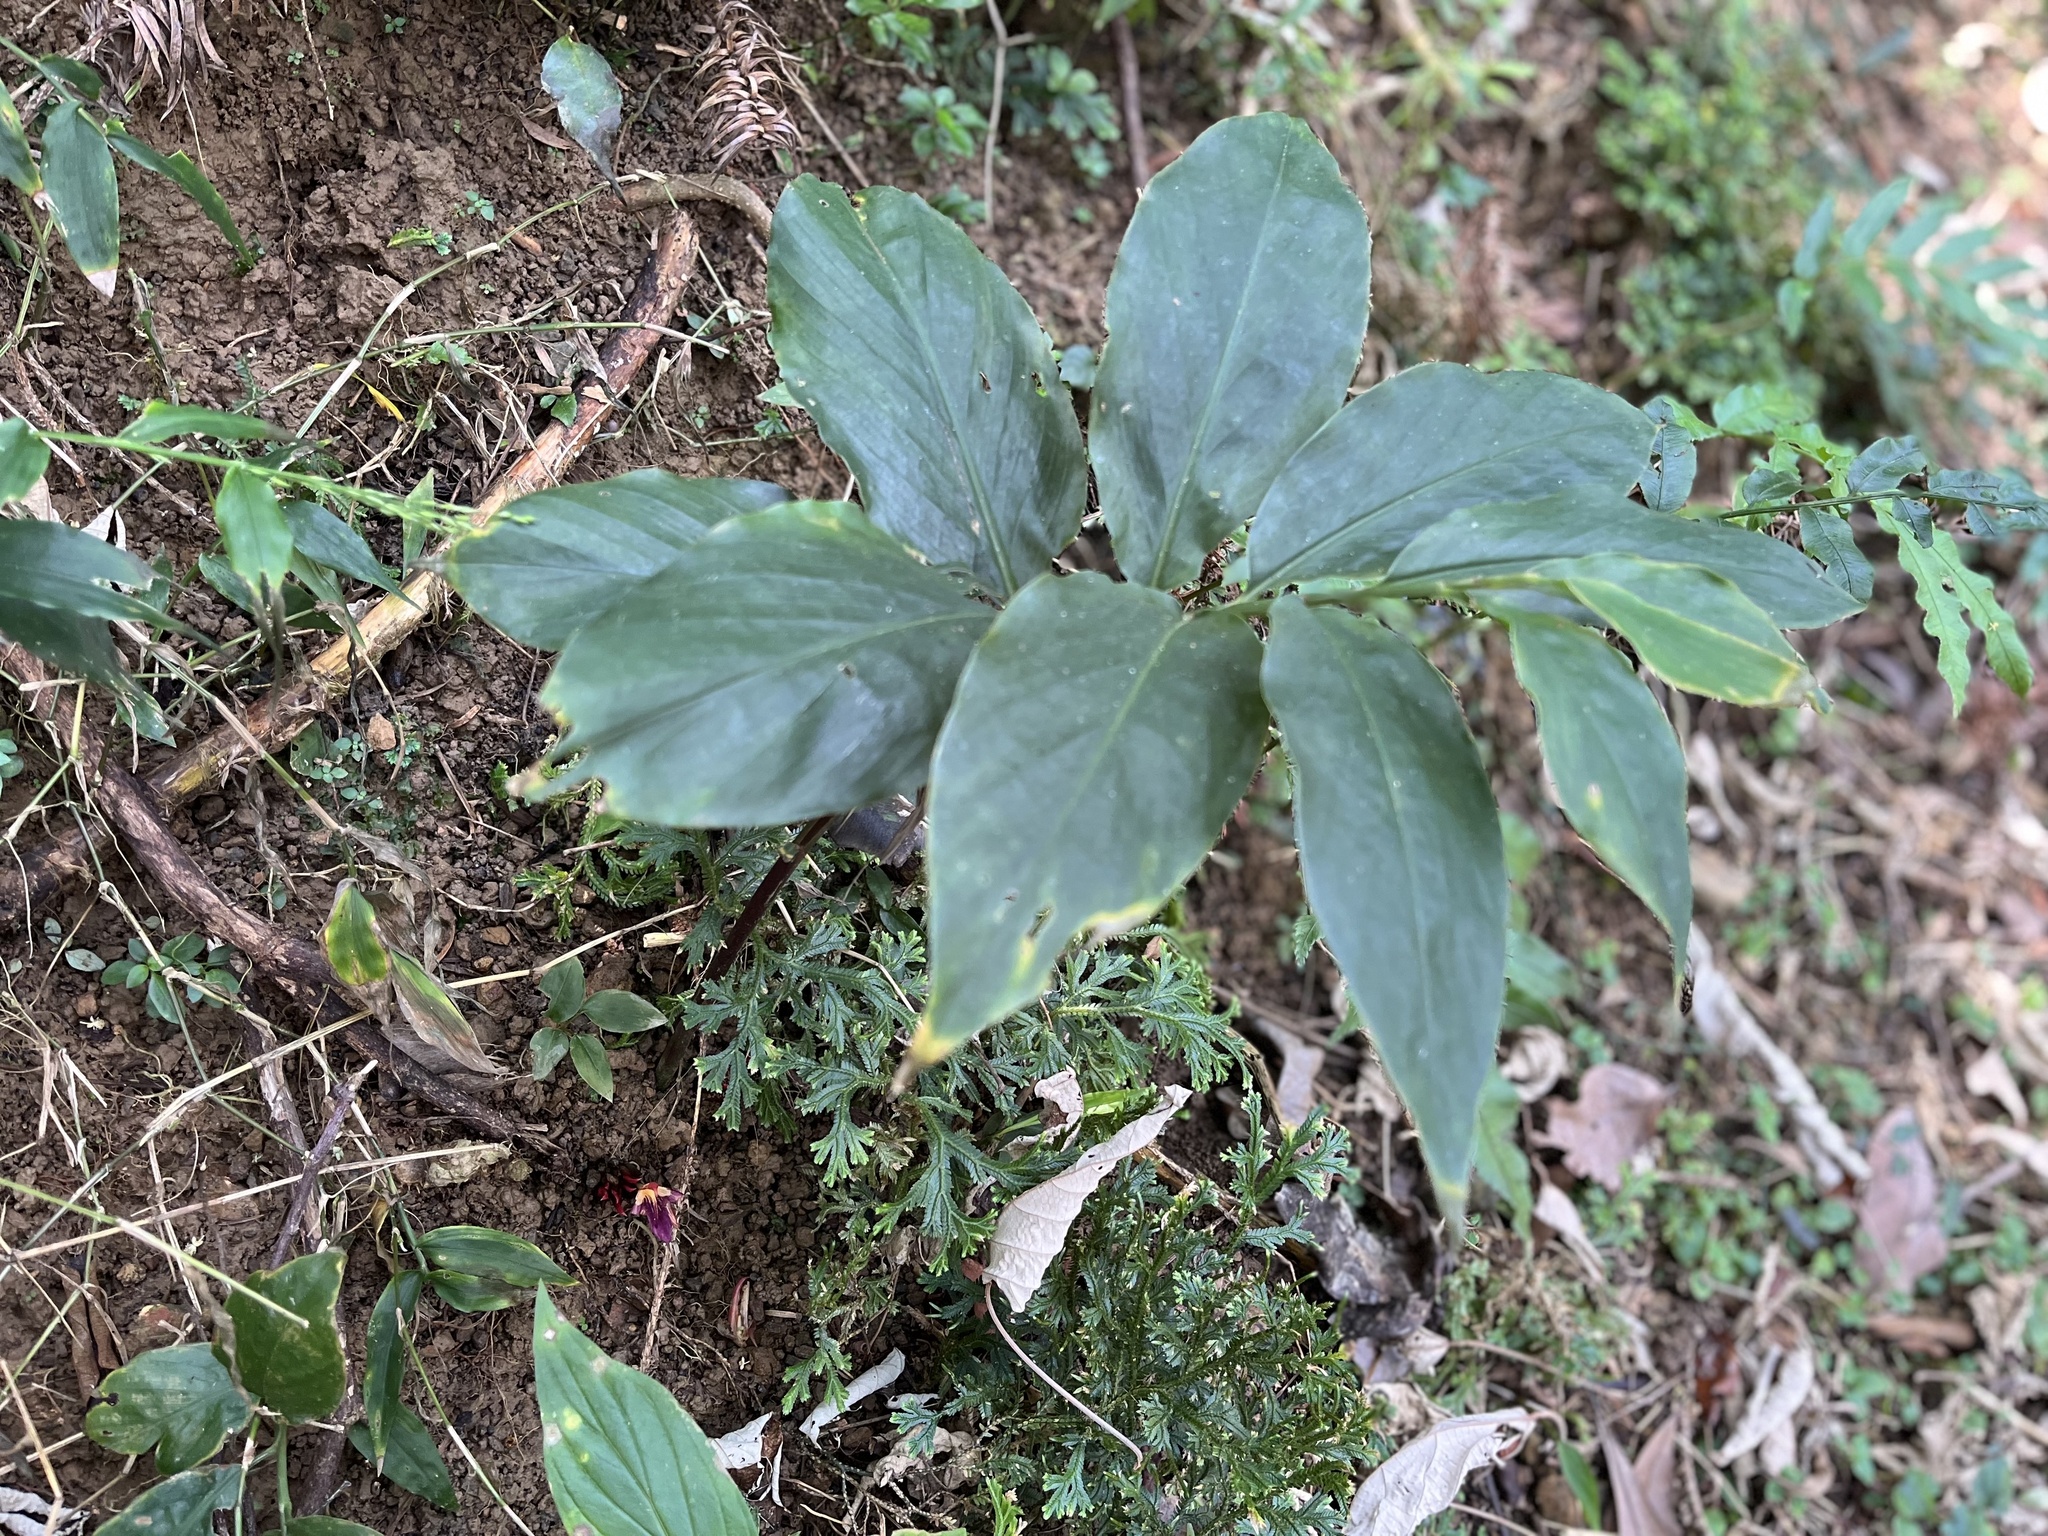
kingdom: Plantae
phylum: Tracheophyta
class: Liliopsida
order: Zingiberales
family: Zingiberaceae
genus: Zingiber
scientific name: Zingiber kawagoii
